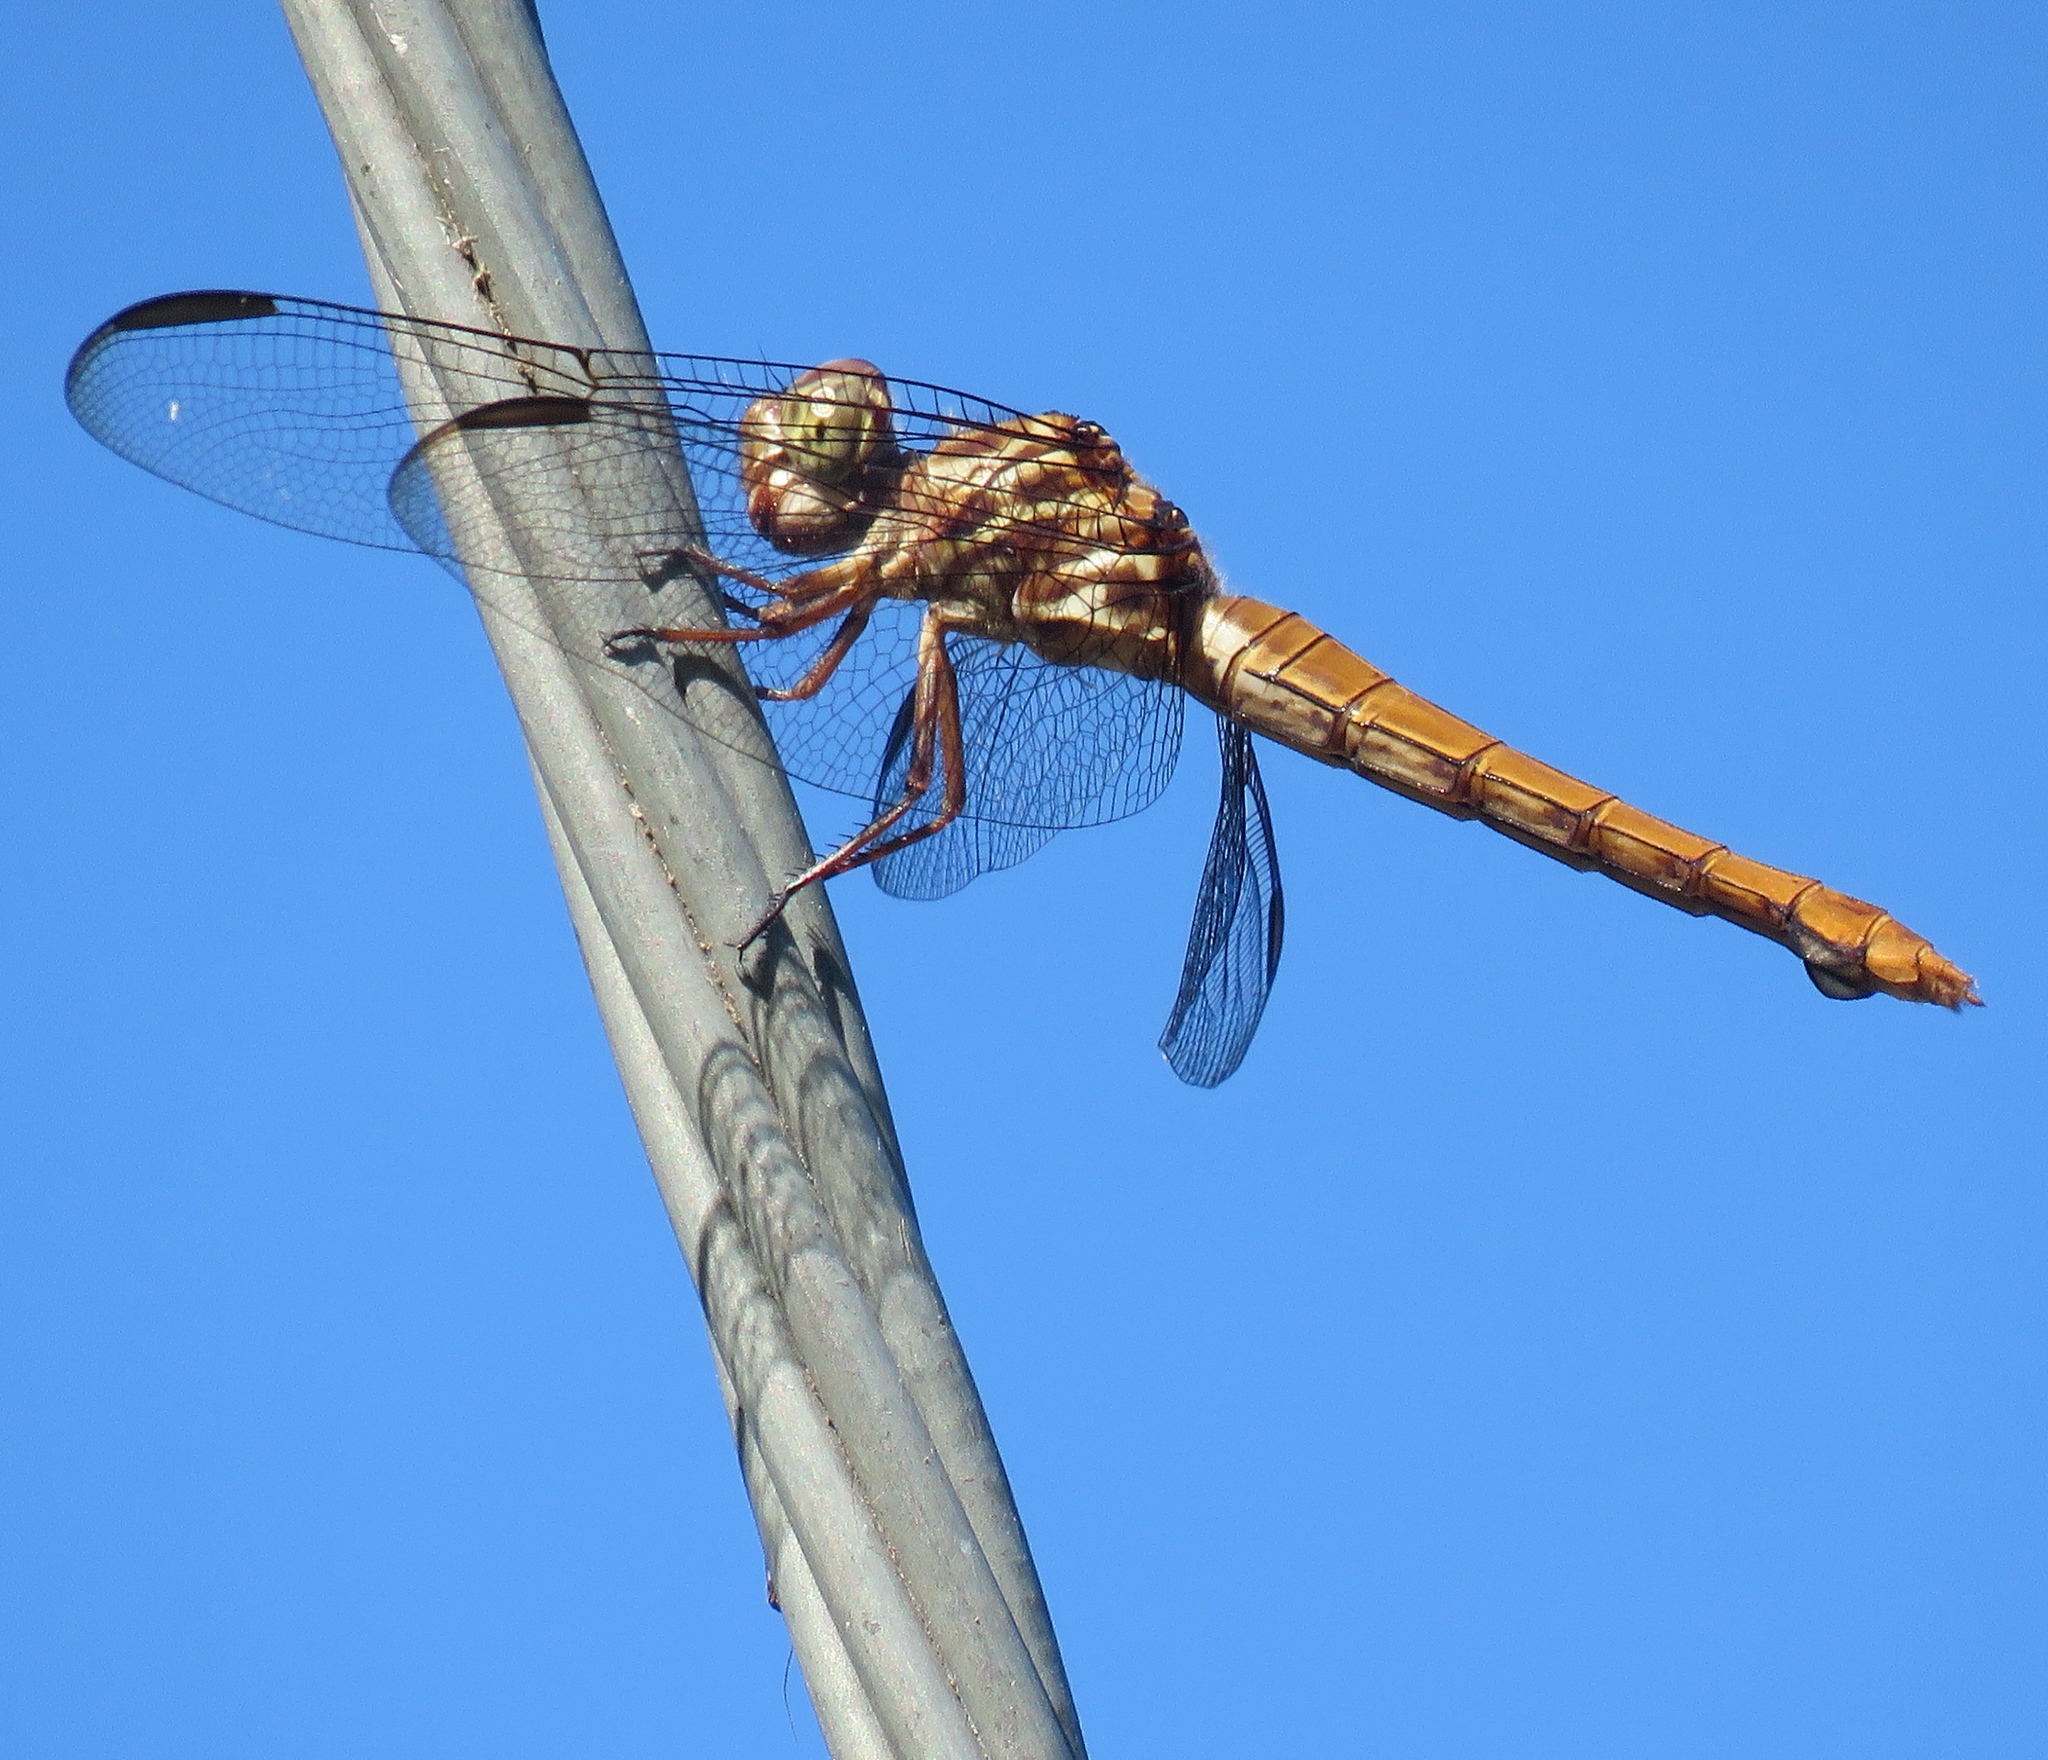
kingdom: Animalia
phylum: Arthropoda
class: Insecta
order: Odonata
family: Libellulidae
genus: Orthemis
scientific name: Orthemis ferruginea
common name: Roseate skimmer
